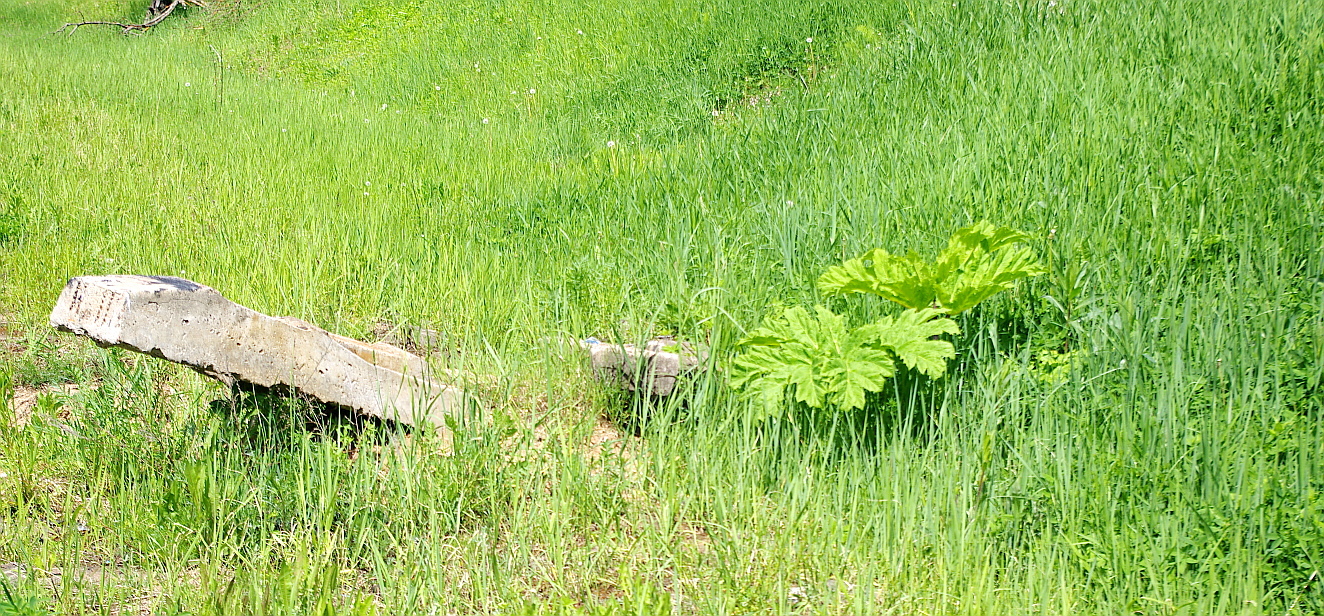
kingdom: Plantae
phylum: Tracheophyta
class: Magnoliopsida
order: Apiales
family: Apiaceae
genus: Heracleum
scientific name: Heracleum sosnowskyi
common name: Sosnowsky's hogweed
